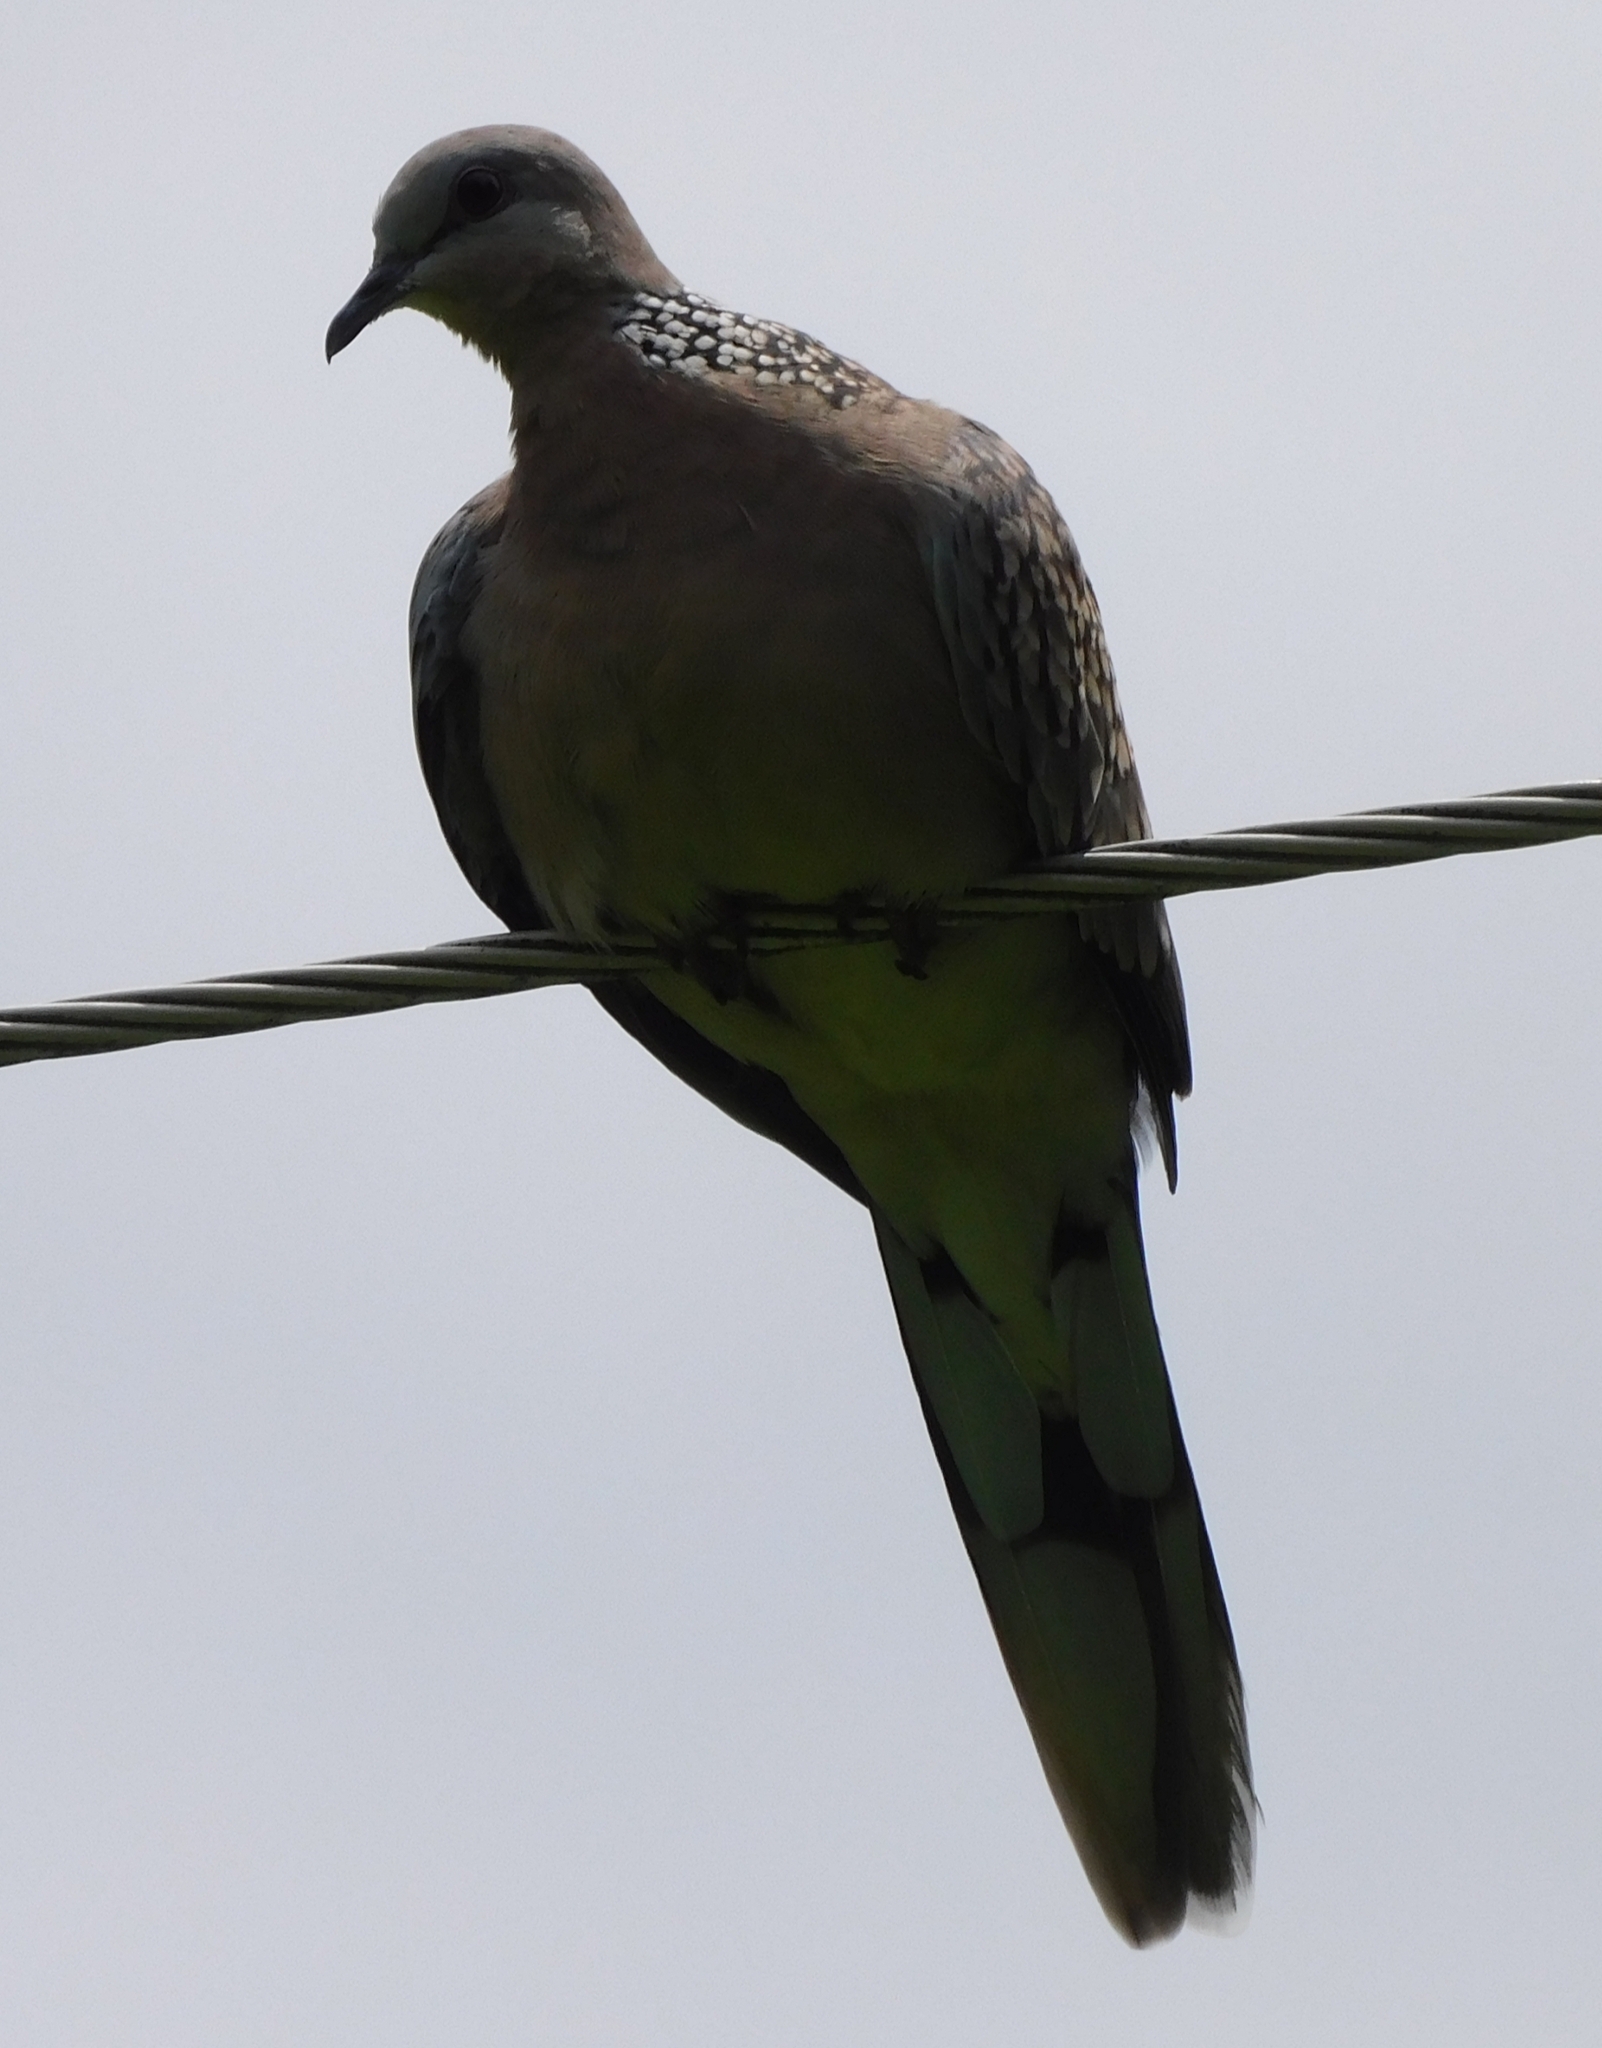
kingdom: Animalia
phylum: Chordata
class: Aves
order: Columbiformes
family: Columbidae
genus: Spilopelia
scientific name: Spilopelia chinensis
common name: Spotted dove
